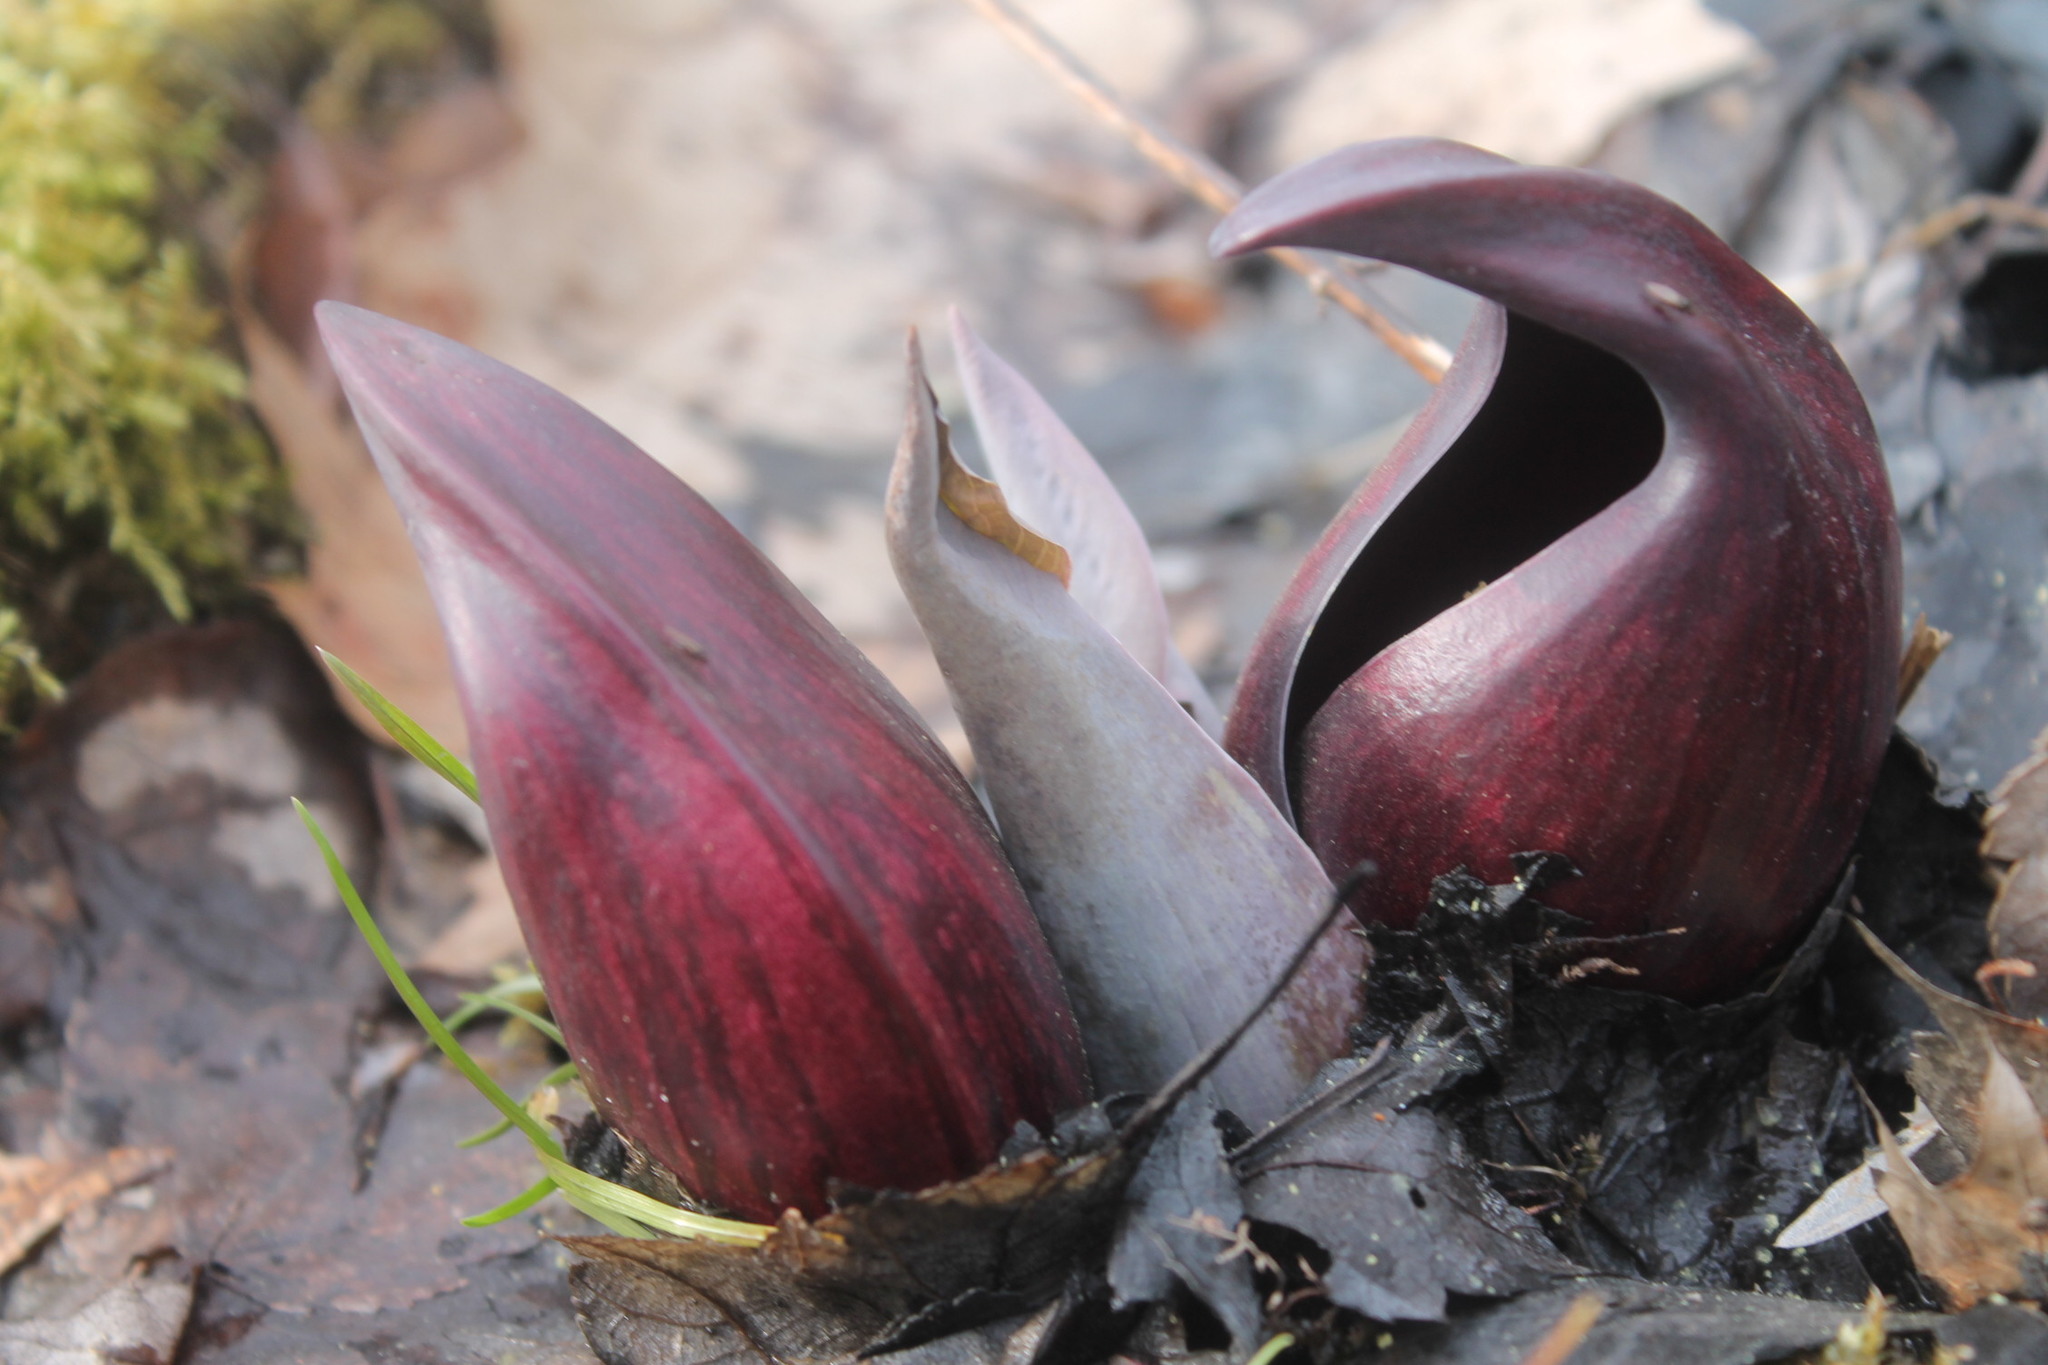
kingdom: Plantae
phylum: Tracheophyta
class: Liliopsida
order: Alismatales
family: Araceae
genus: Symplocarpus
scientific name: Symplocarpus foetidus
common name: Eastern skunk cabbage
